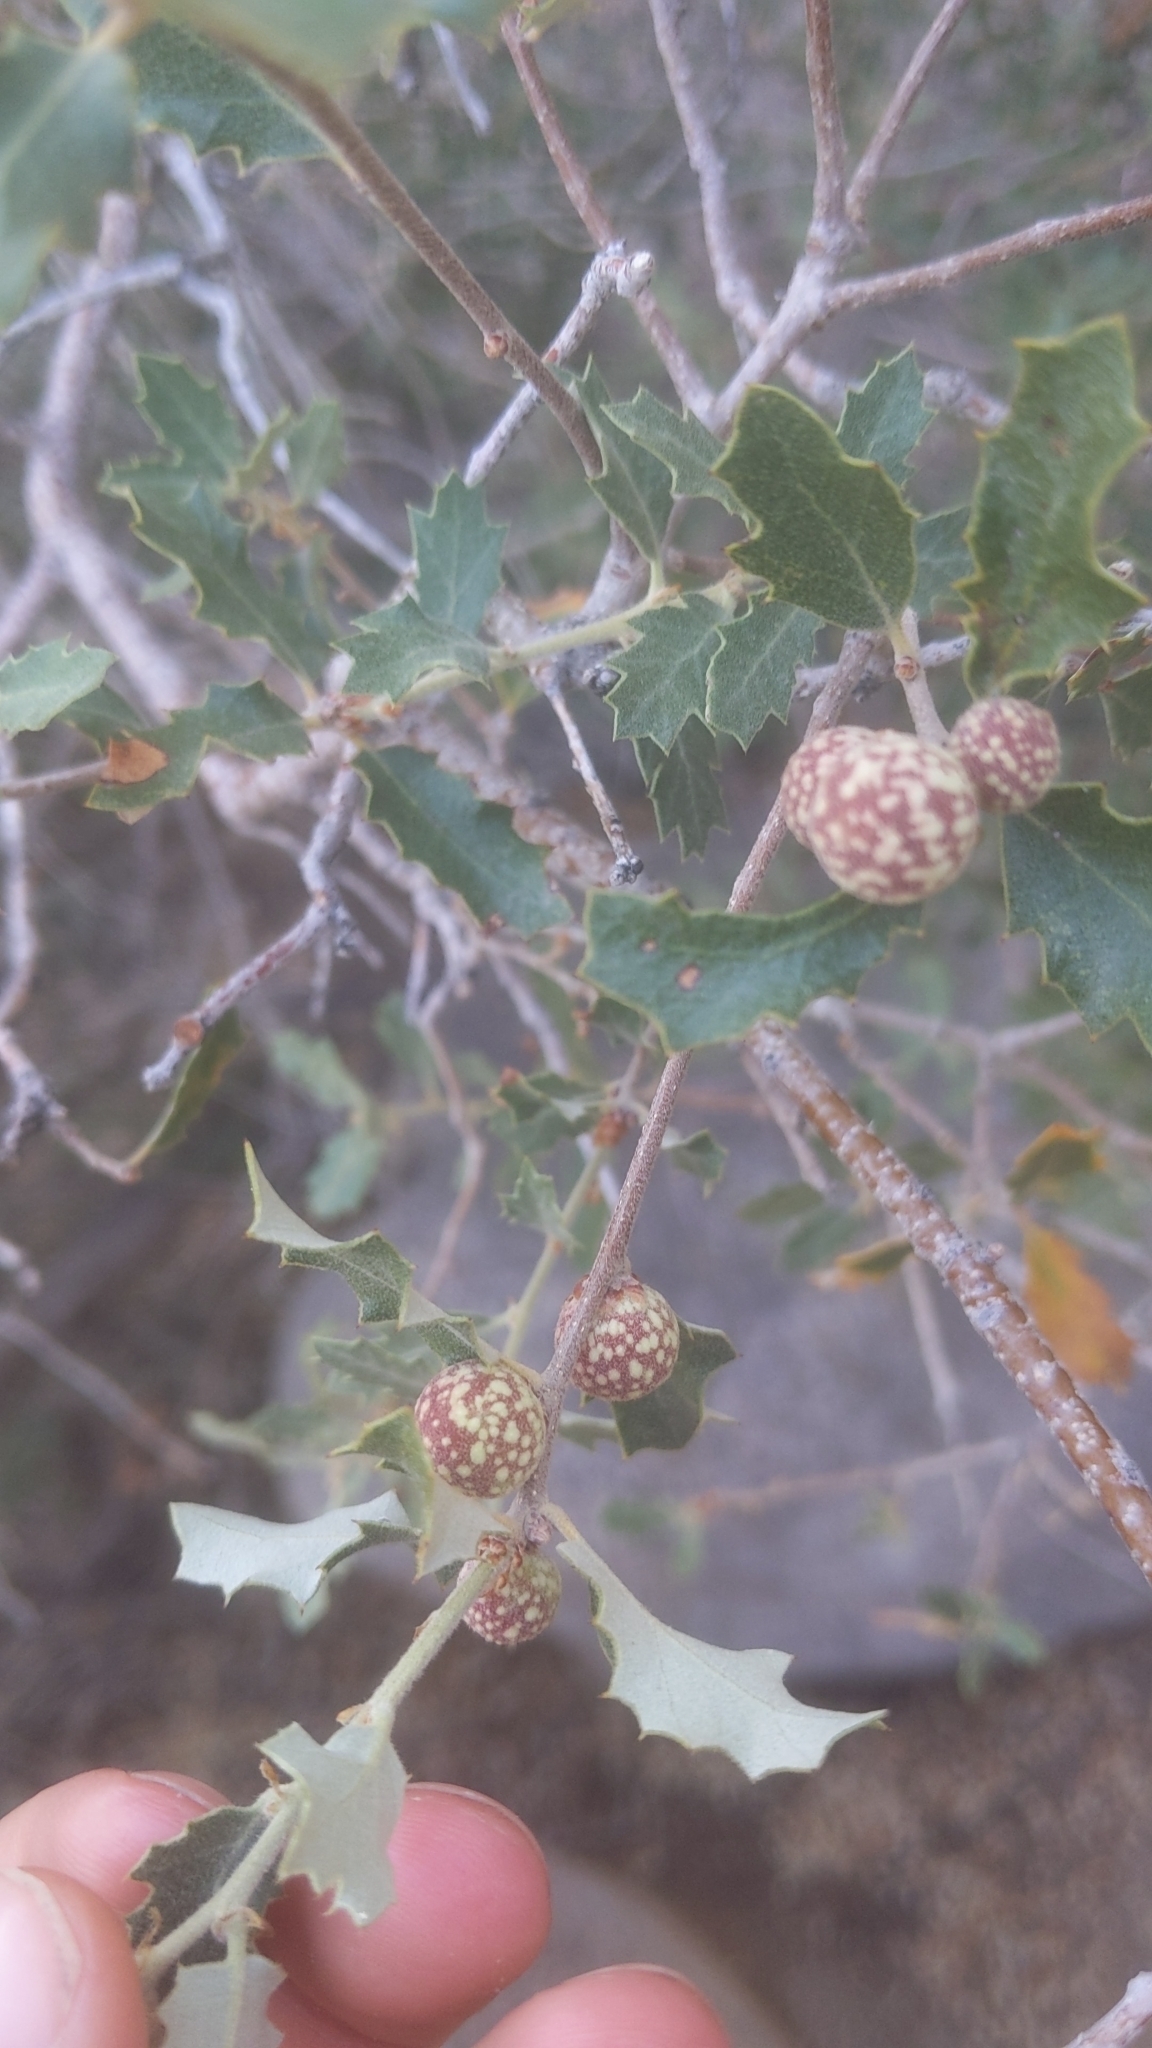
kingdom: Animalia
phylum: Arthropoda
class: Insecta
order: Hymenoptera
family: Cynipidae
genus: Burnettweldia
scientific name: Burnettweldia
